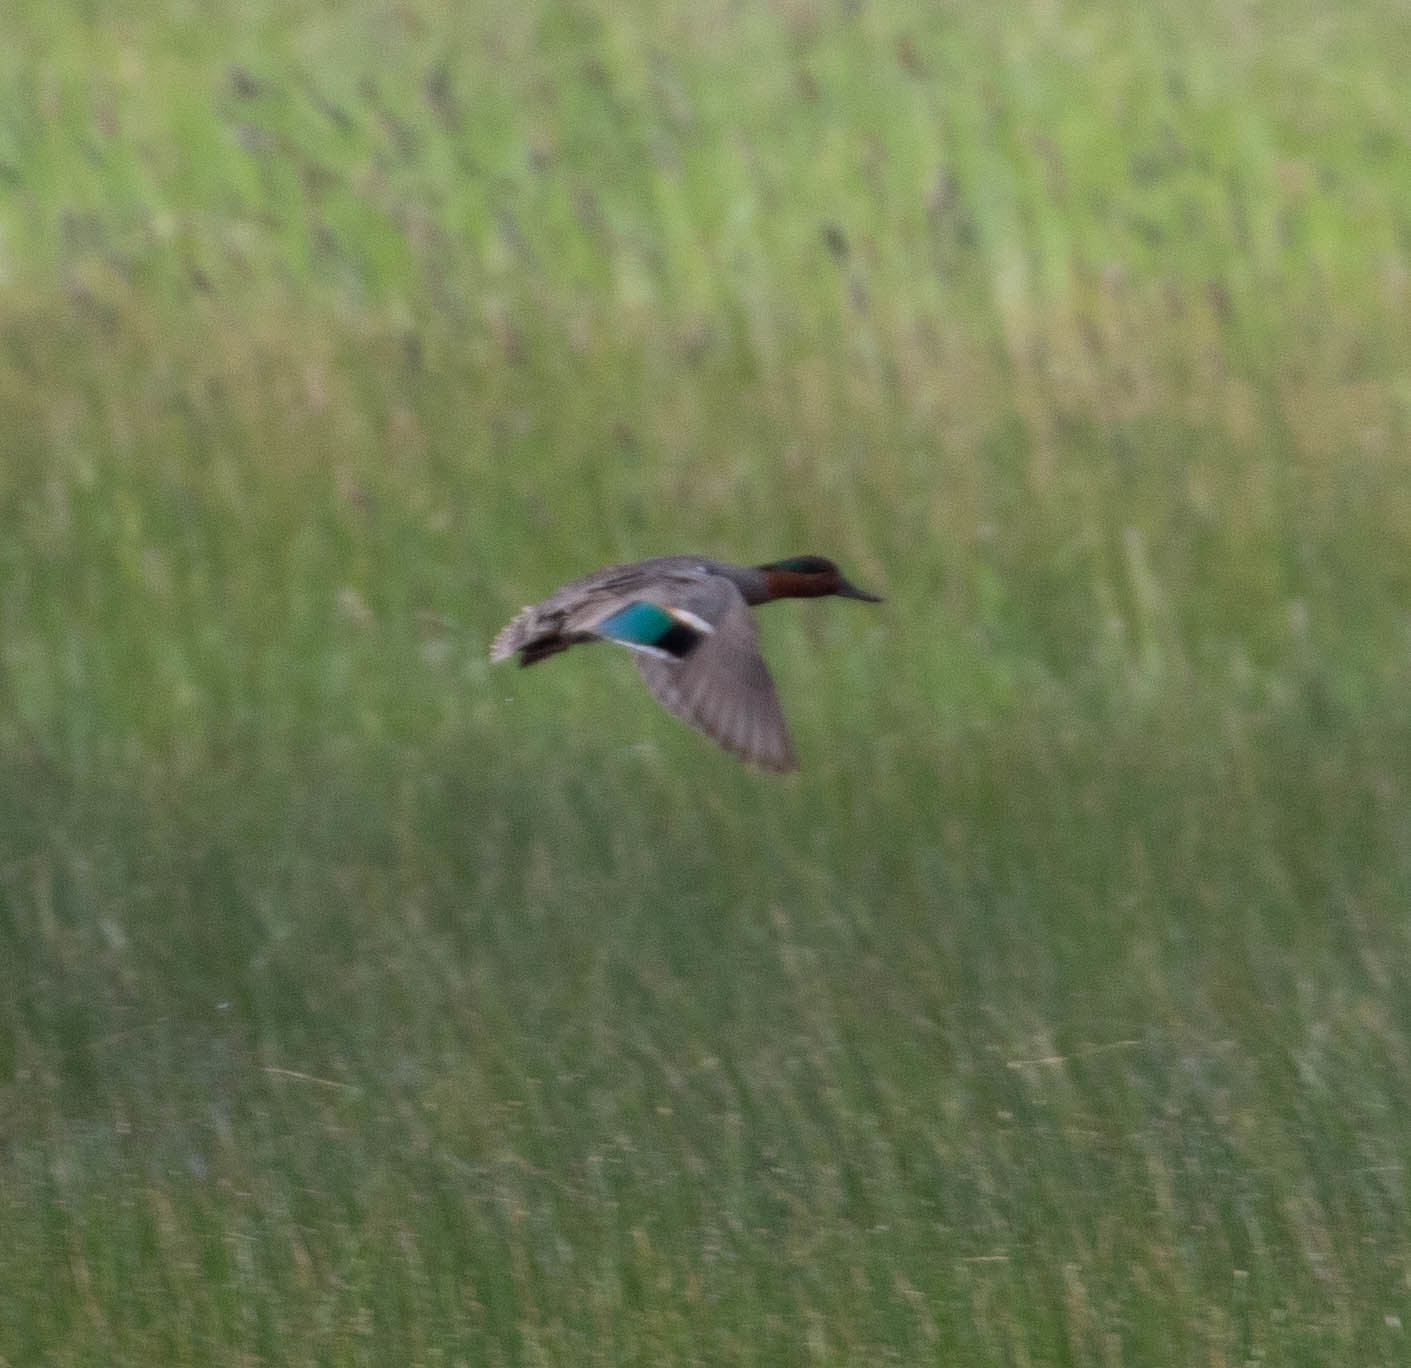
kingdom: Animalia
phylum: Chordata
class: Aves
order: Anseriformes
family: Anatidae
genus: Anas
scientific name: Anas crecca
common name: Eurasian teal
